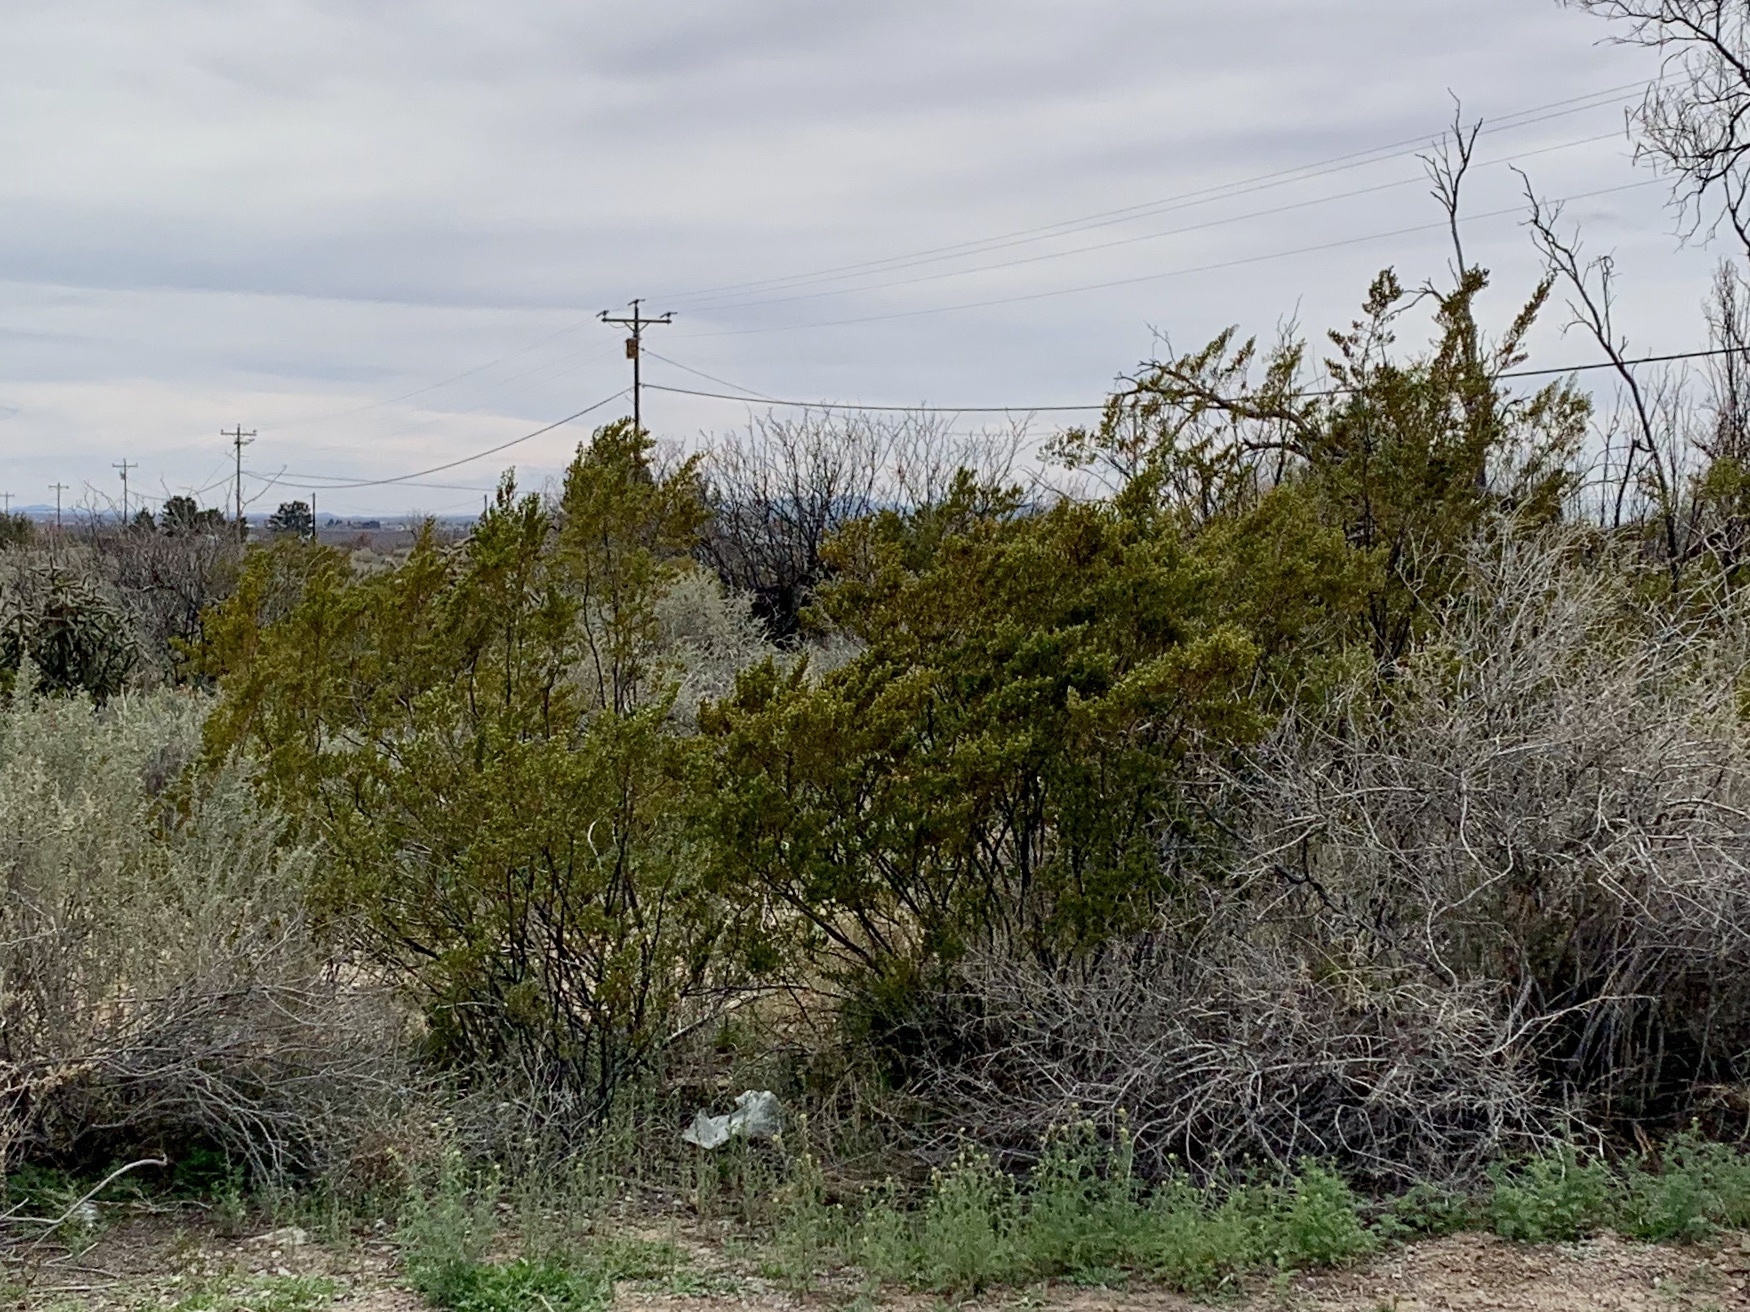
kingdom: Plantae
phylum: Tracheophyta
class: Magnoliopsida
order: Zygophyllales
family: Zygophyllaceae
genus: Larrea
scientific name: Larrea tridentata
